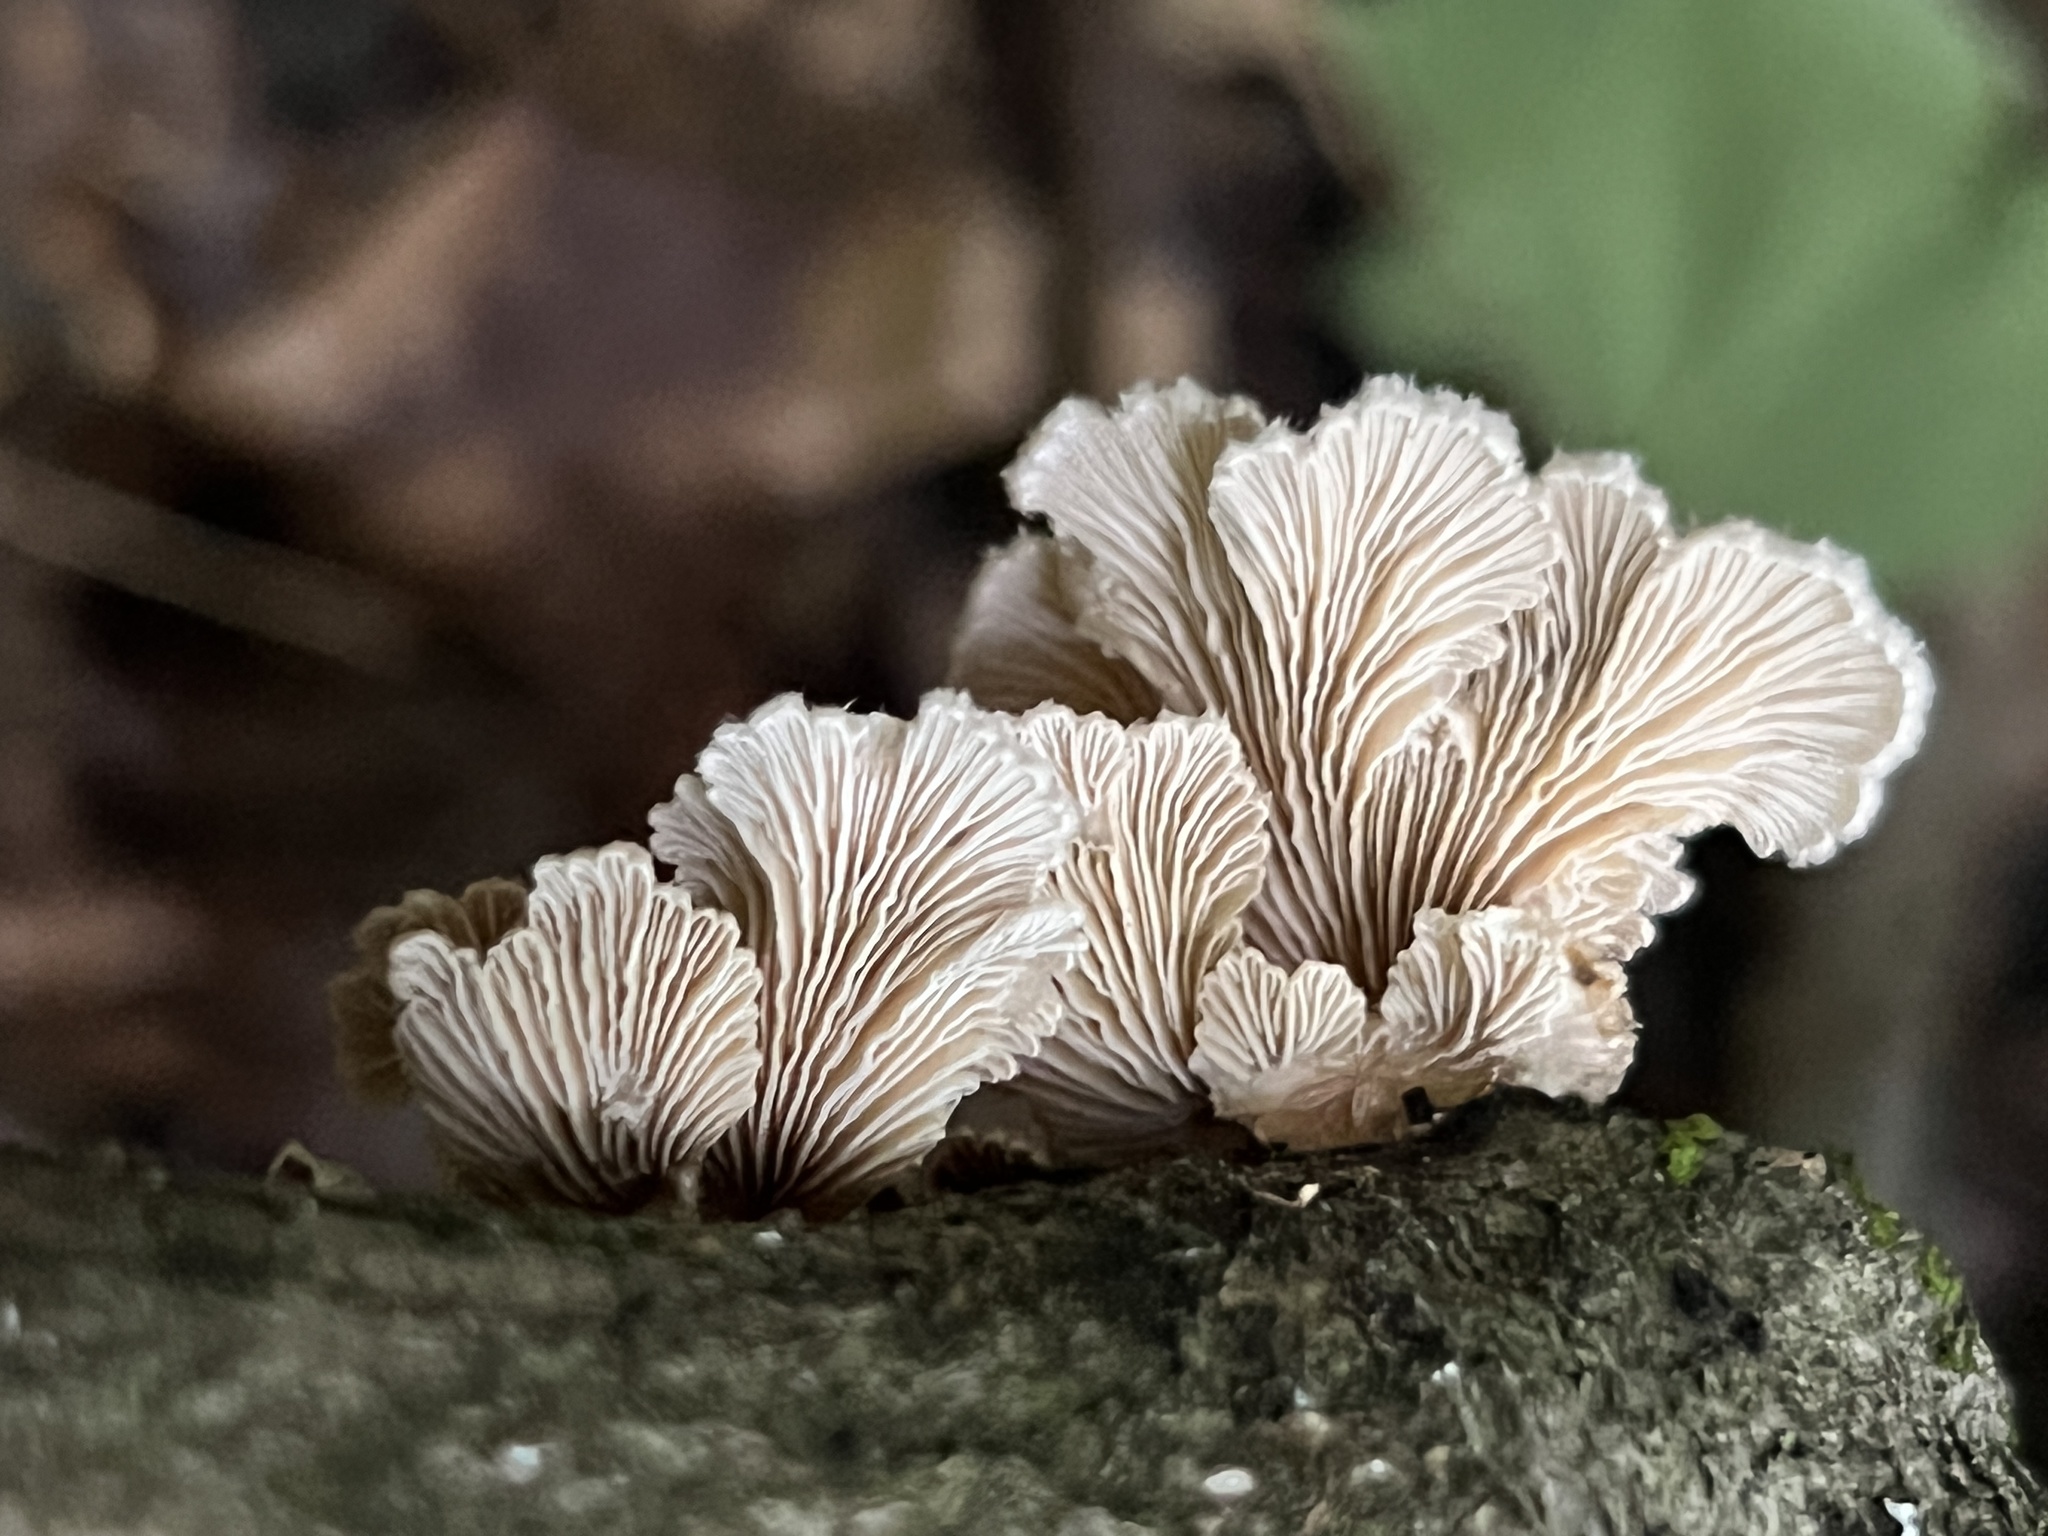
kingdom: Fungi
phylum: Basidiomycota
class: Agaricomycetes
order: Agaricales
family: Schizophyllaceae
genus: Schizophyllum
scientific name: Schizophyllum commune
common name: Common porecrust
